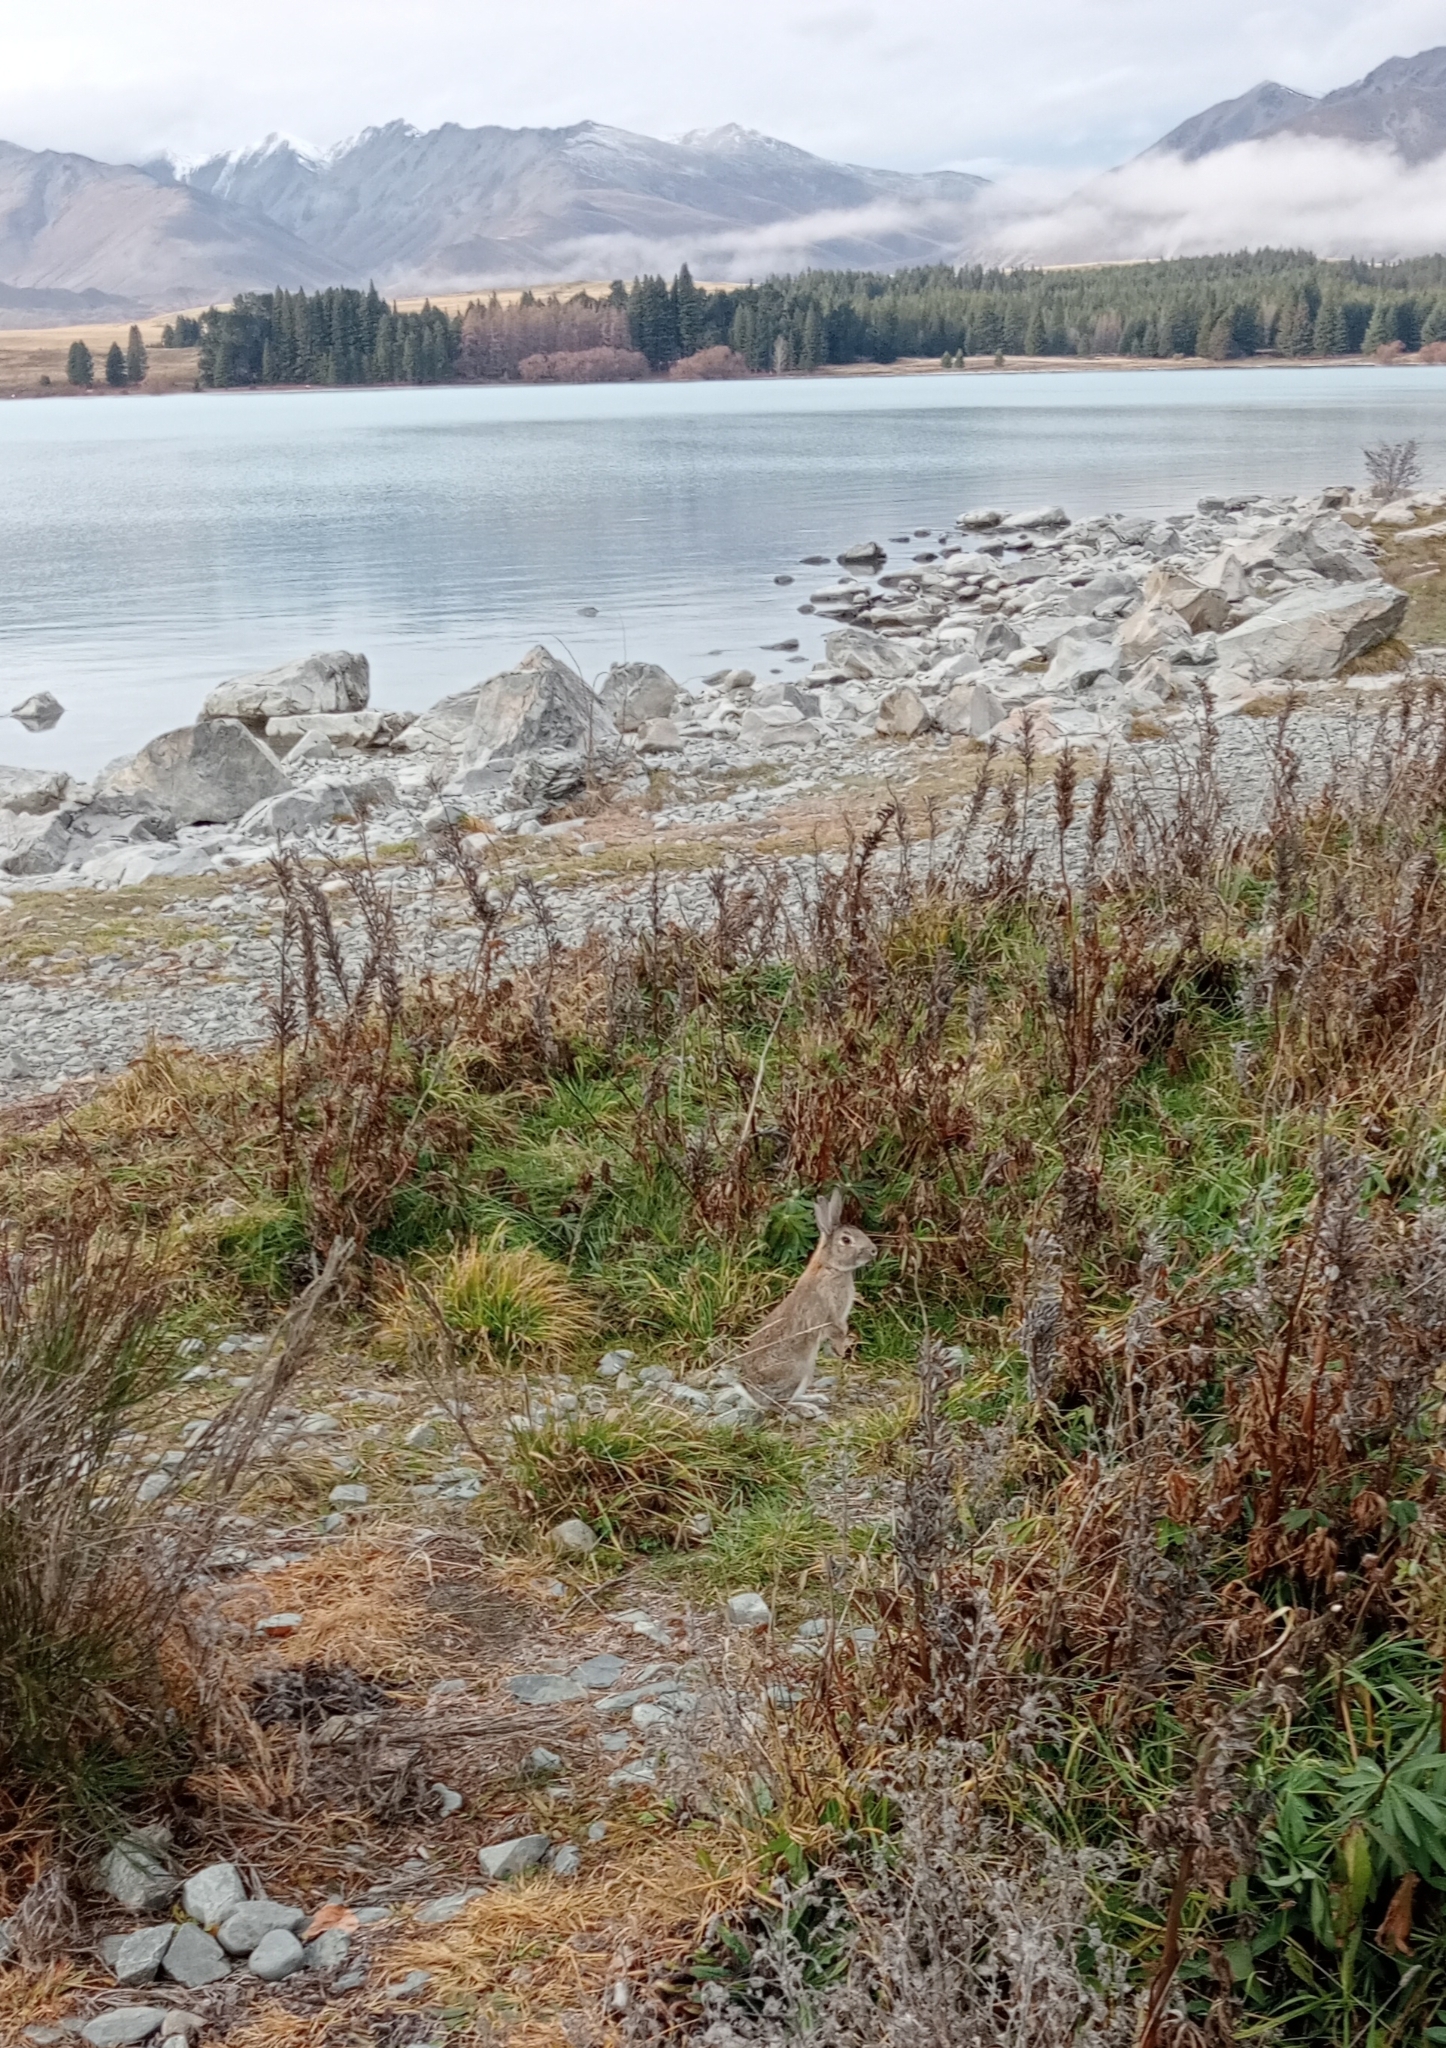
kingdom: Animalia
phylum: Chordata
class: Mammalia
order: Lagomorpha
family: Leporidae
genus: Oryctolagus
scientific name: Oryctolagus cuniculus
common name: European rabbit
